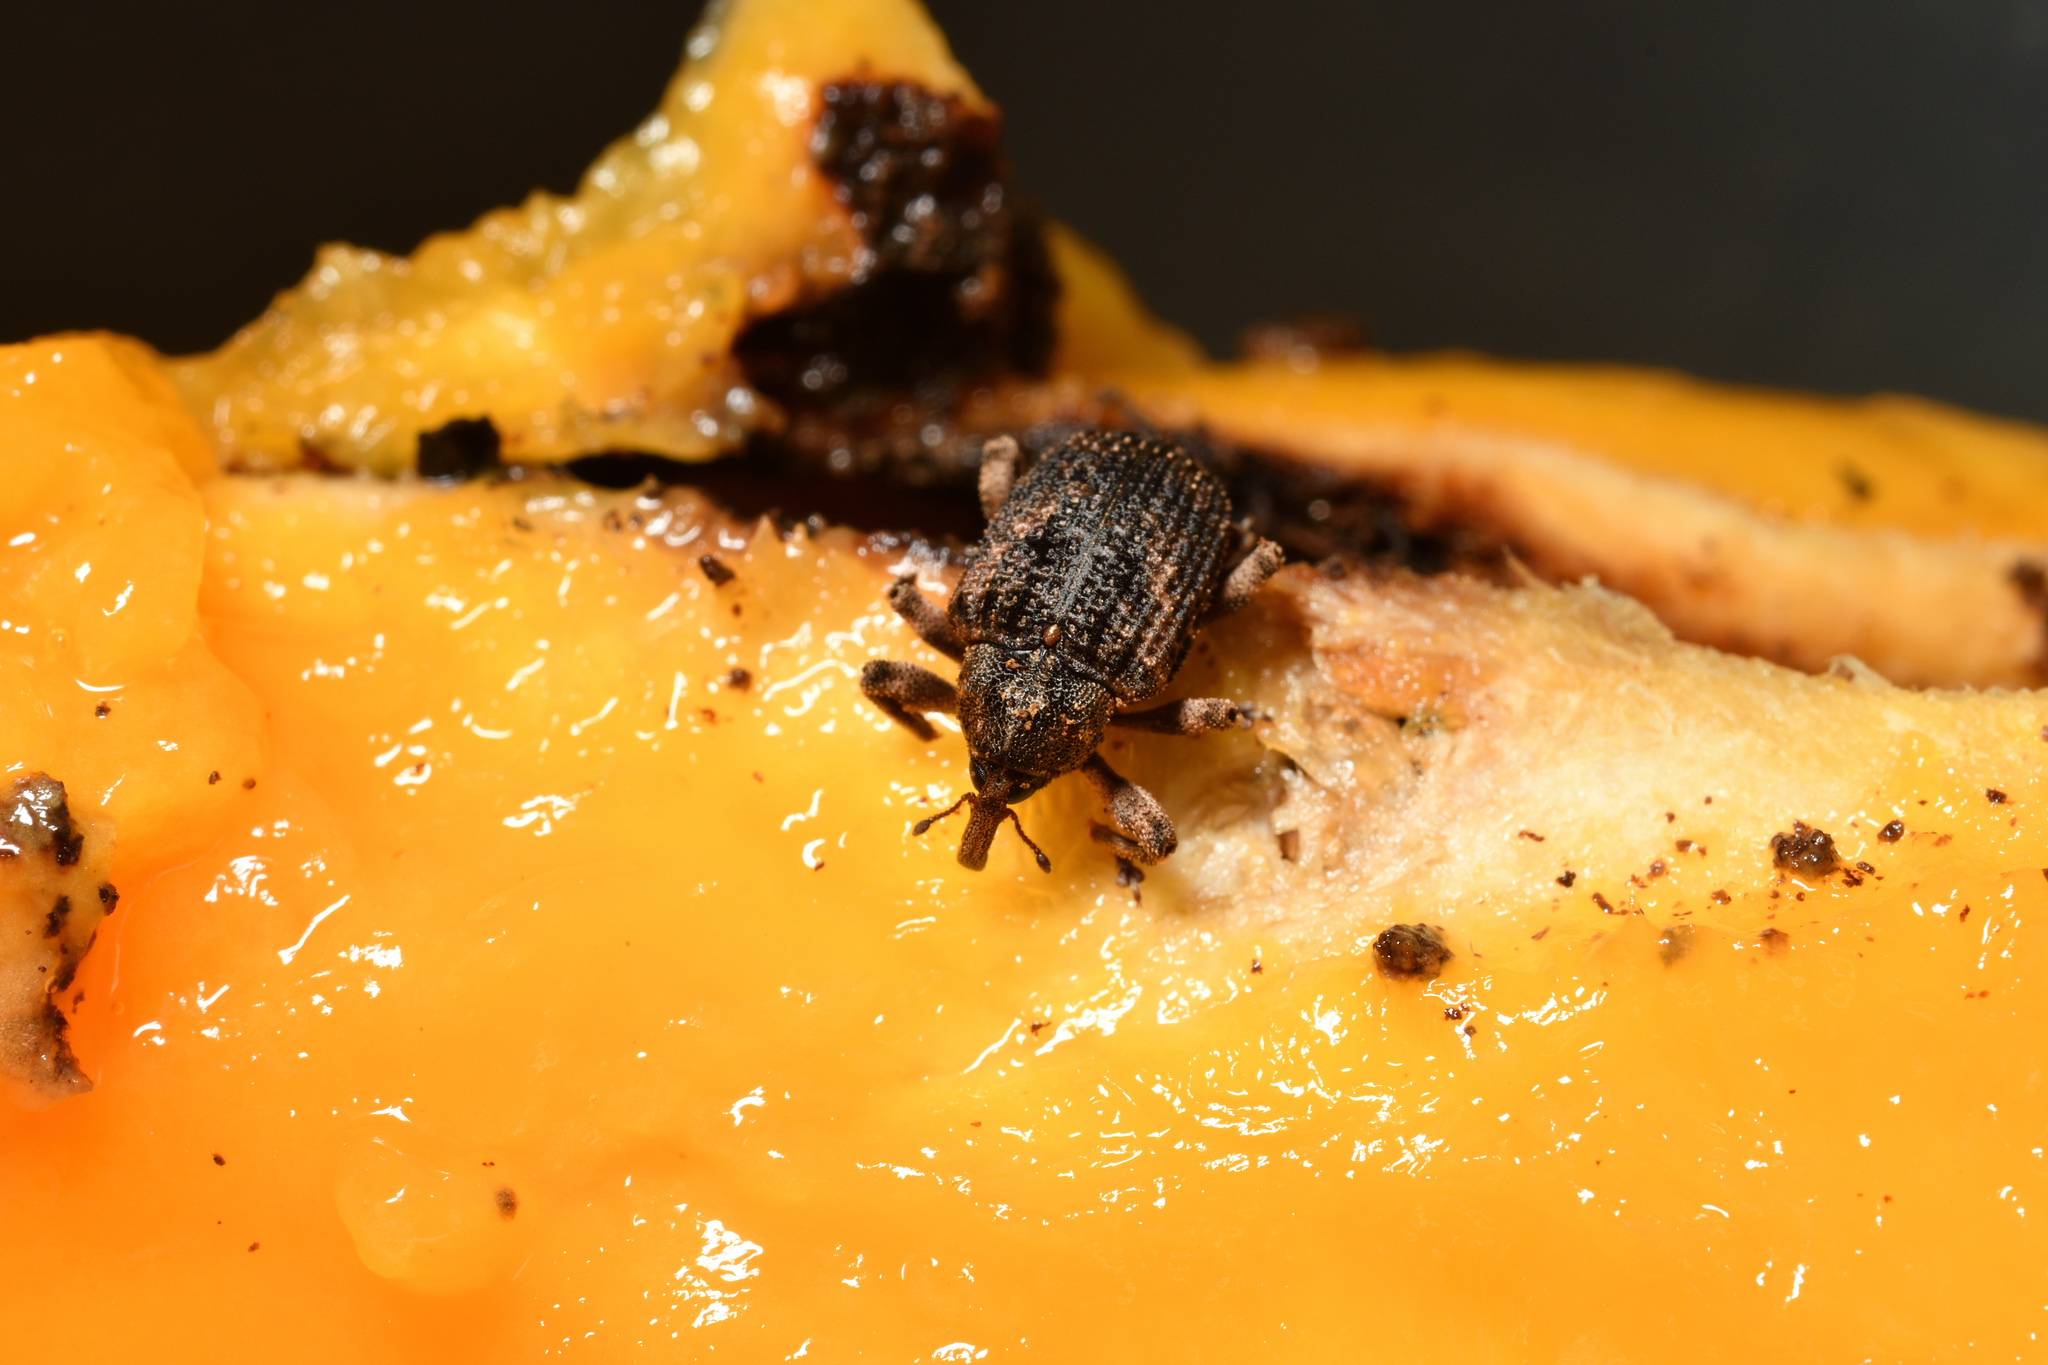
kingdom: Animalia
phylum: Arthropoda
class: Insecta
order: Coleoptera
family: Curculionidae
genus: Sternochetus
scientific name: Sternochetus mangiferae
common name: Mango seed weevil
